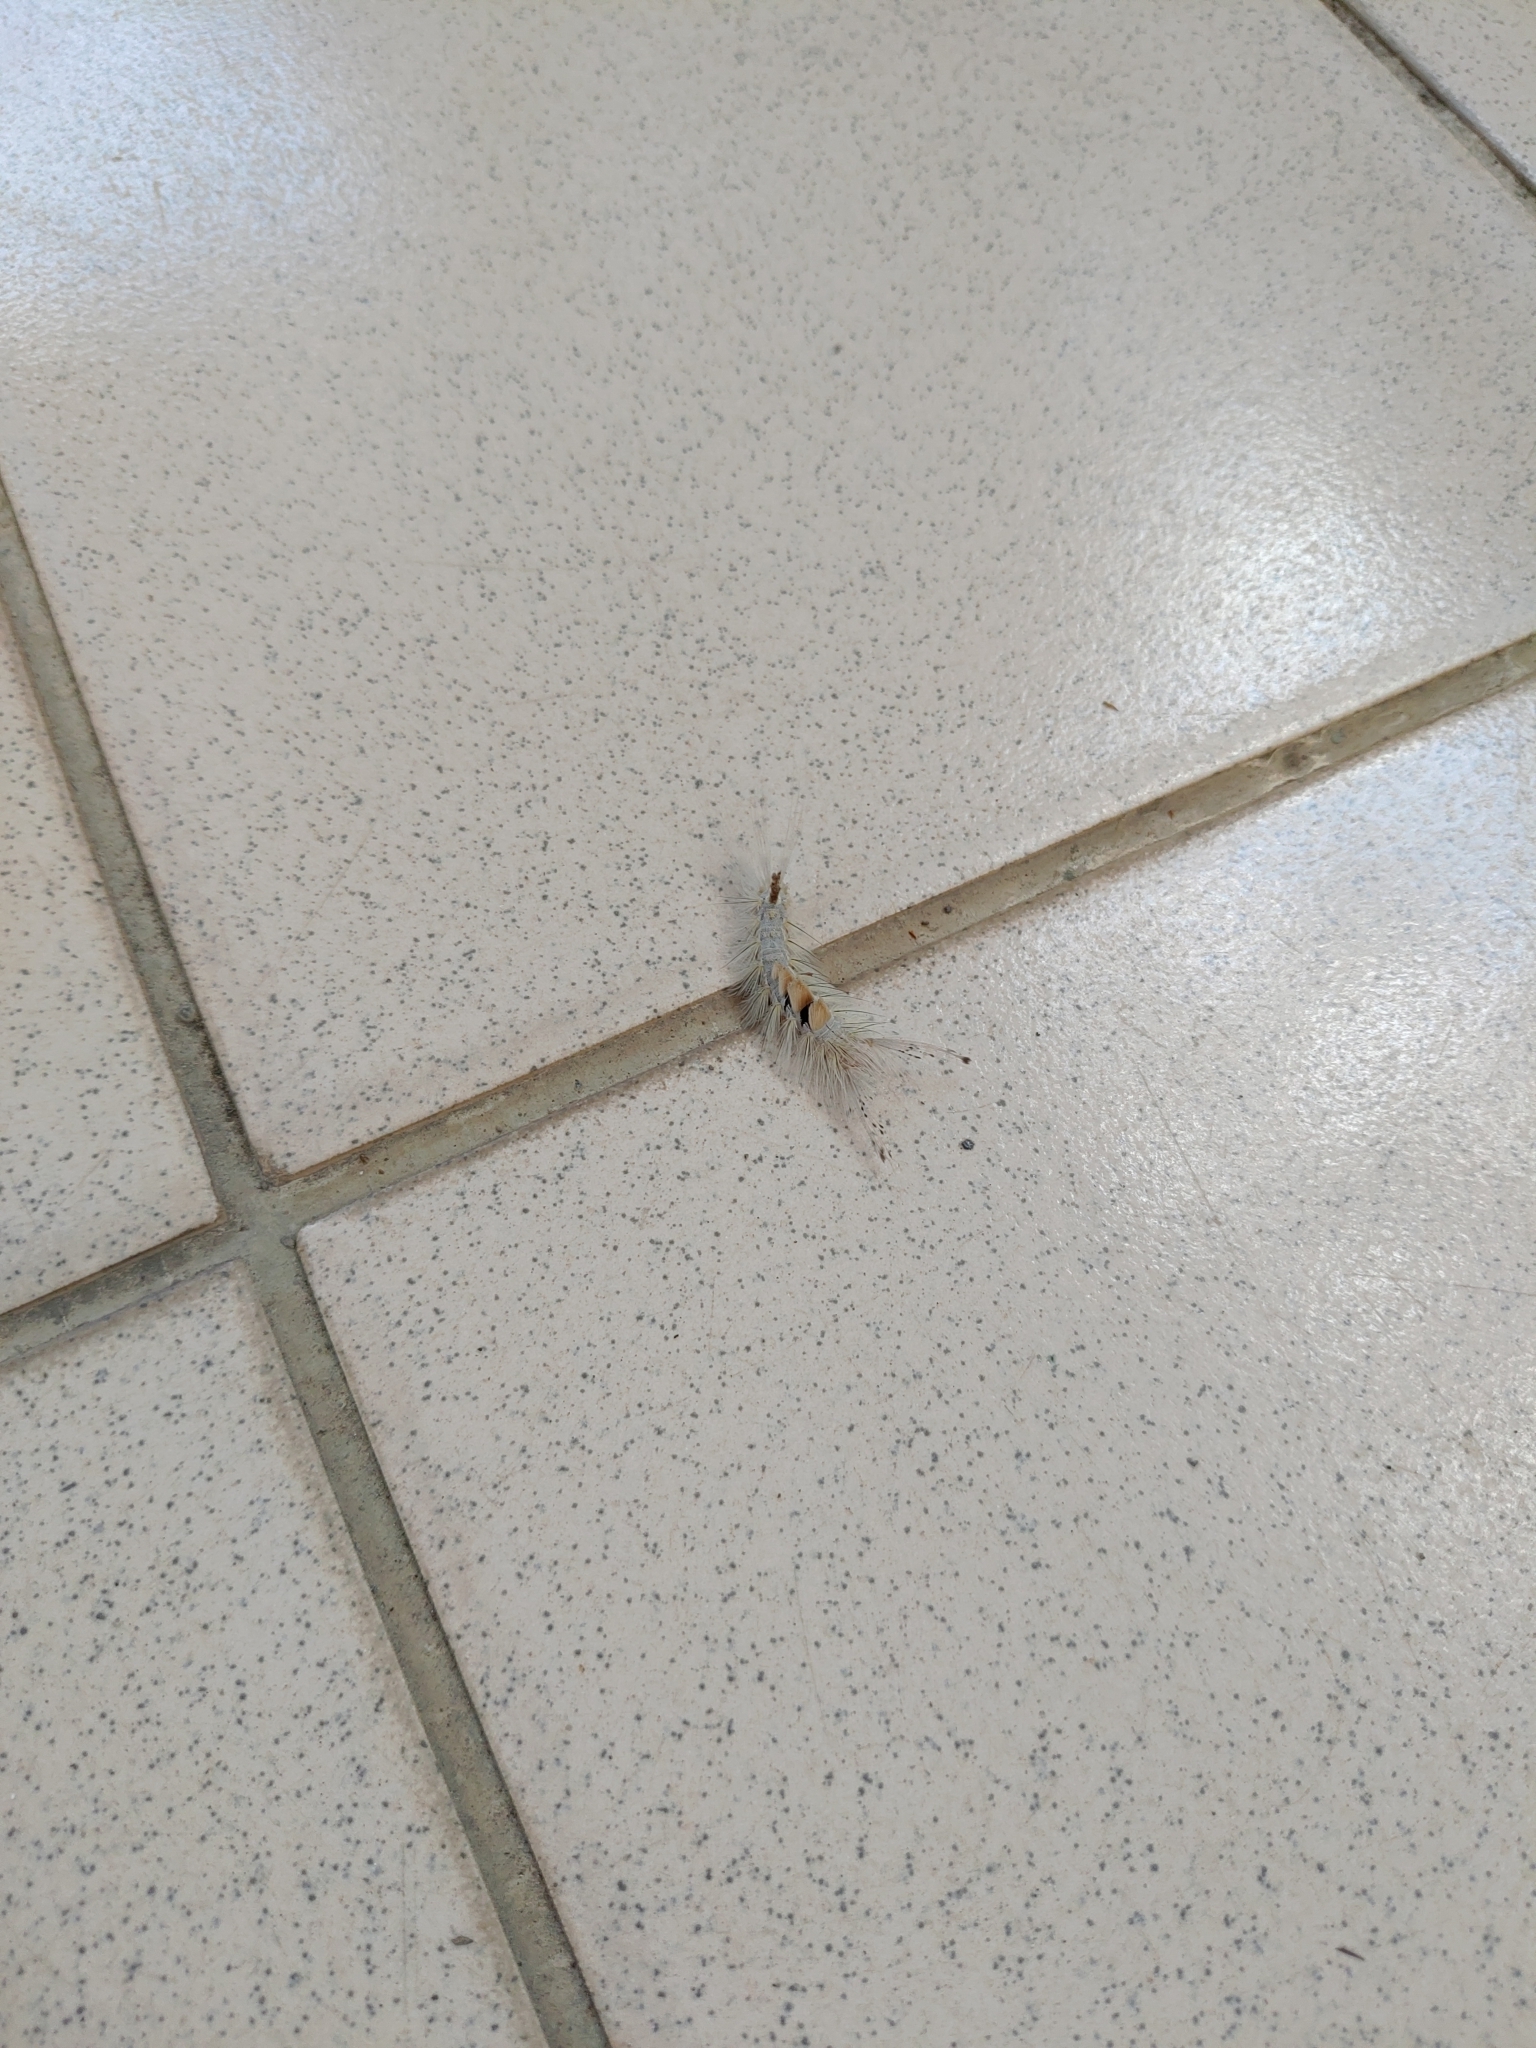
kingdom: Animalia
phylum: Arthropoda
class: Insecta
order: Lepidoptera
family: Erebidae
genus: Olene
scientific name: Olene dudgeoni
